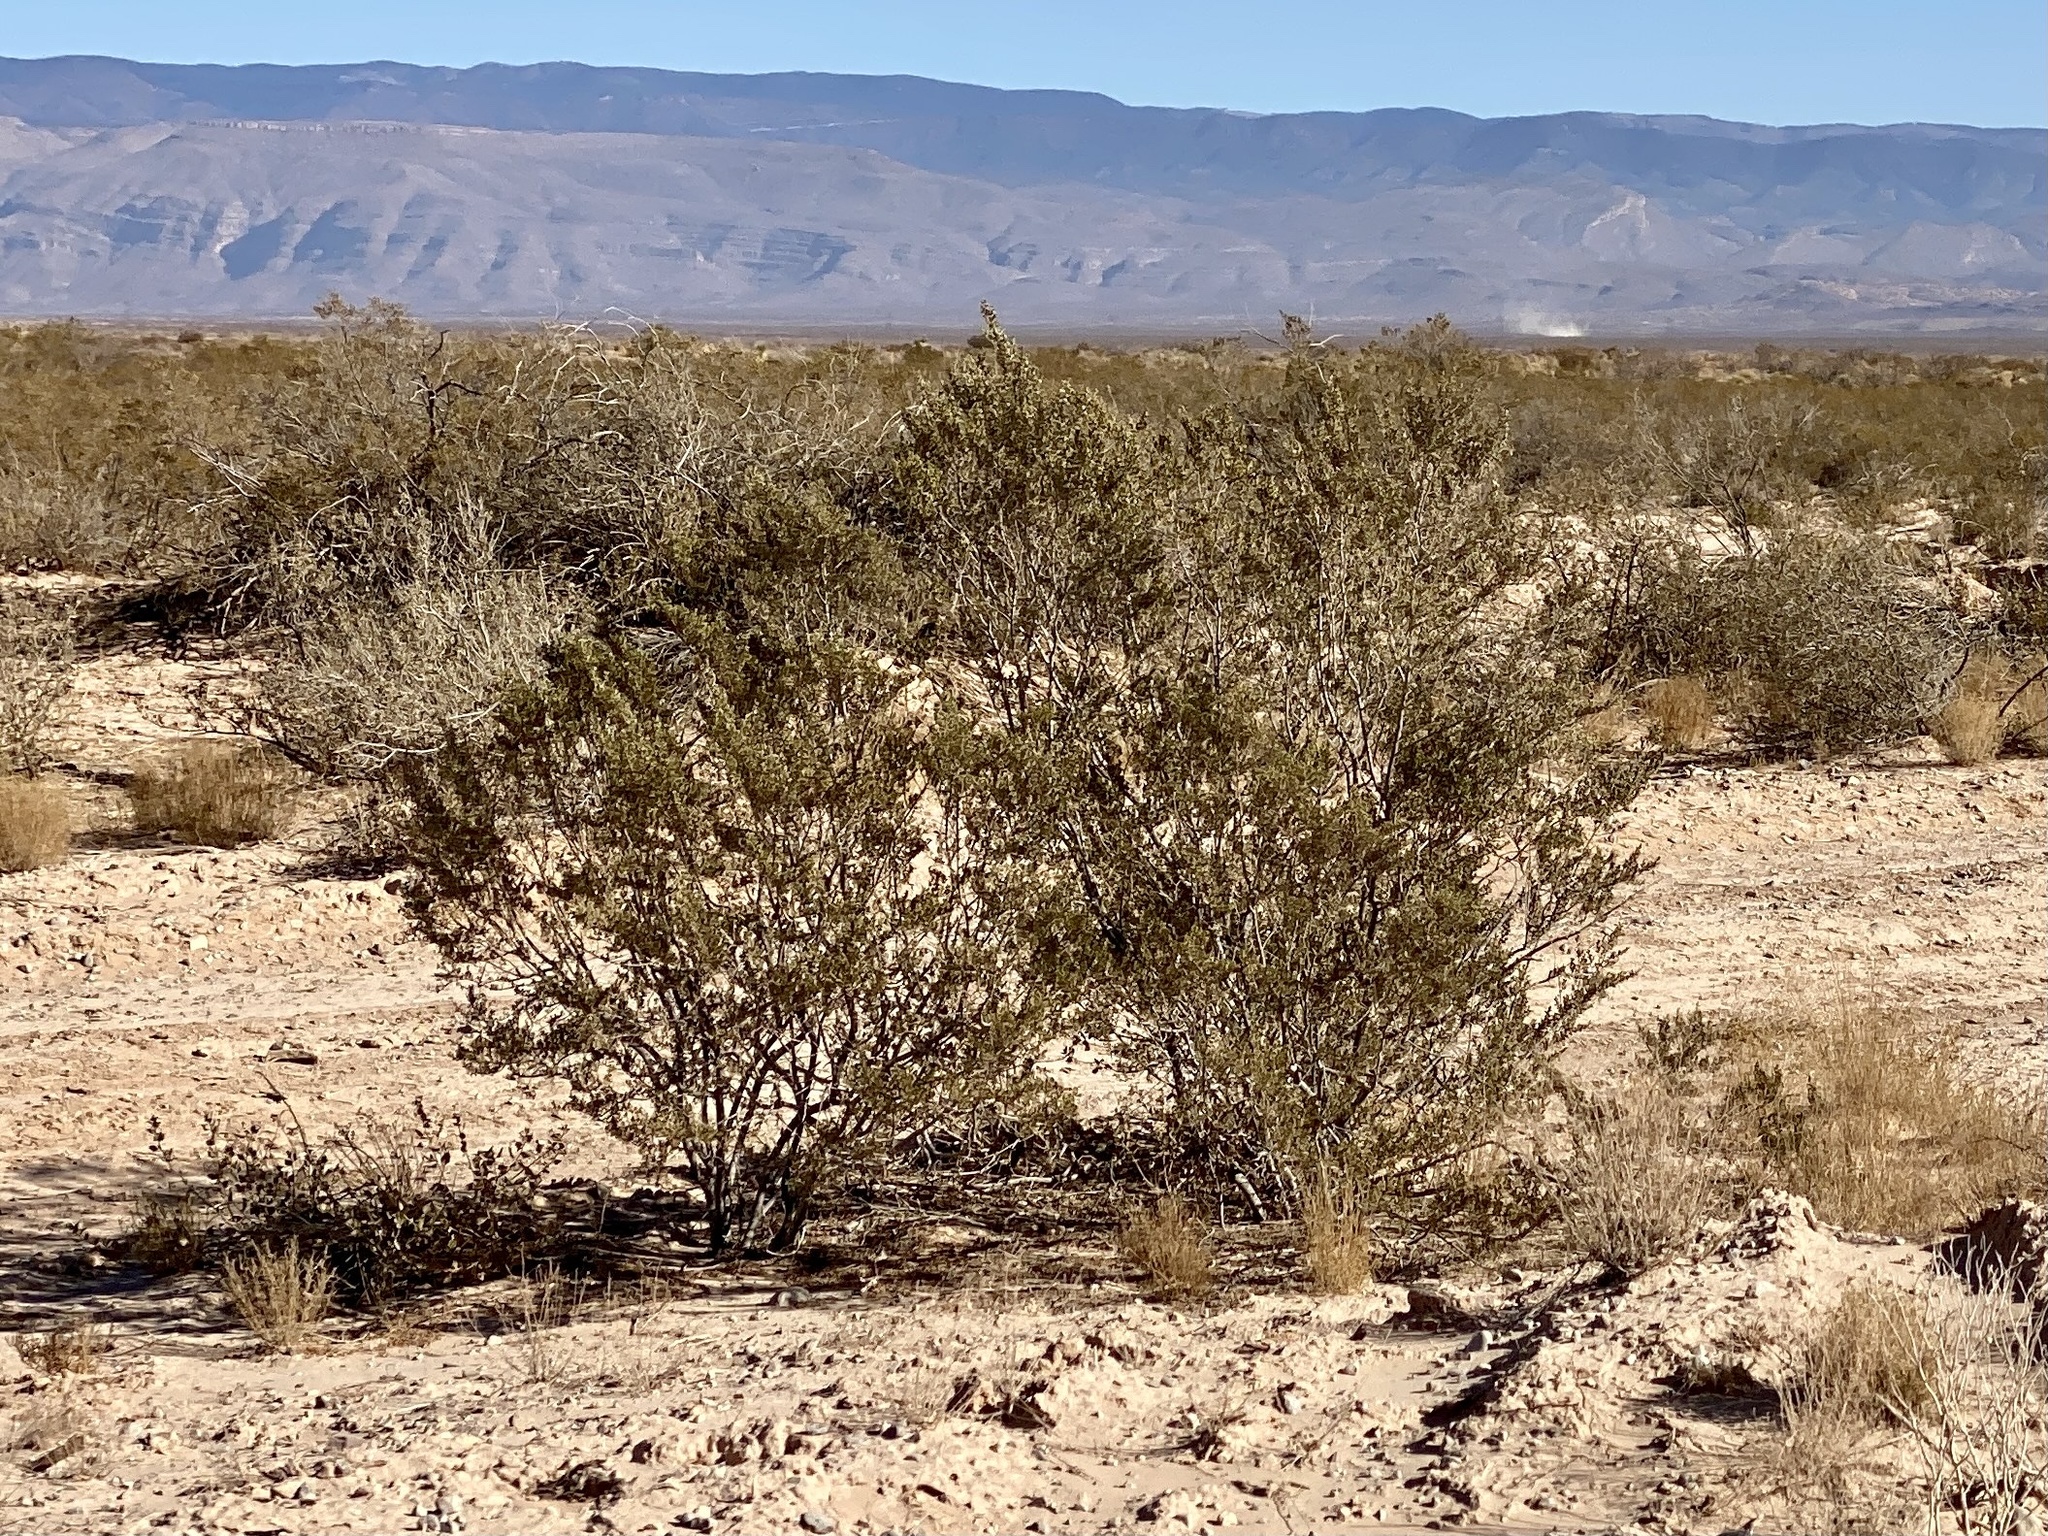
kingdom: Plantae
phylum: Tracheophyta
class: Magnoliopsida
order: Zygophyllales
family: Zygophyllaceae
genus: Larrea
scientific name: Larrea tridentata
